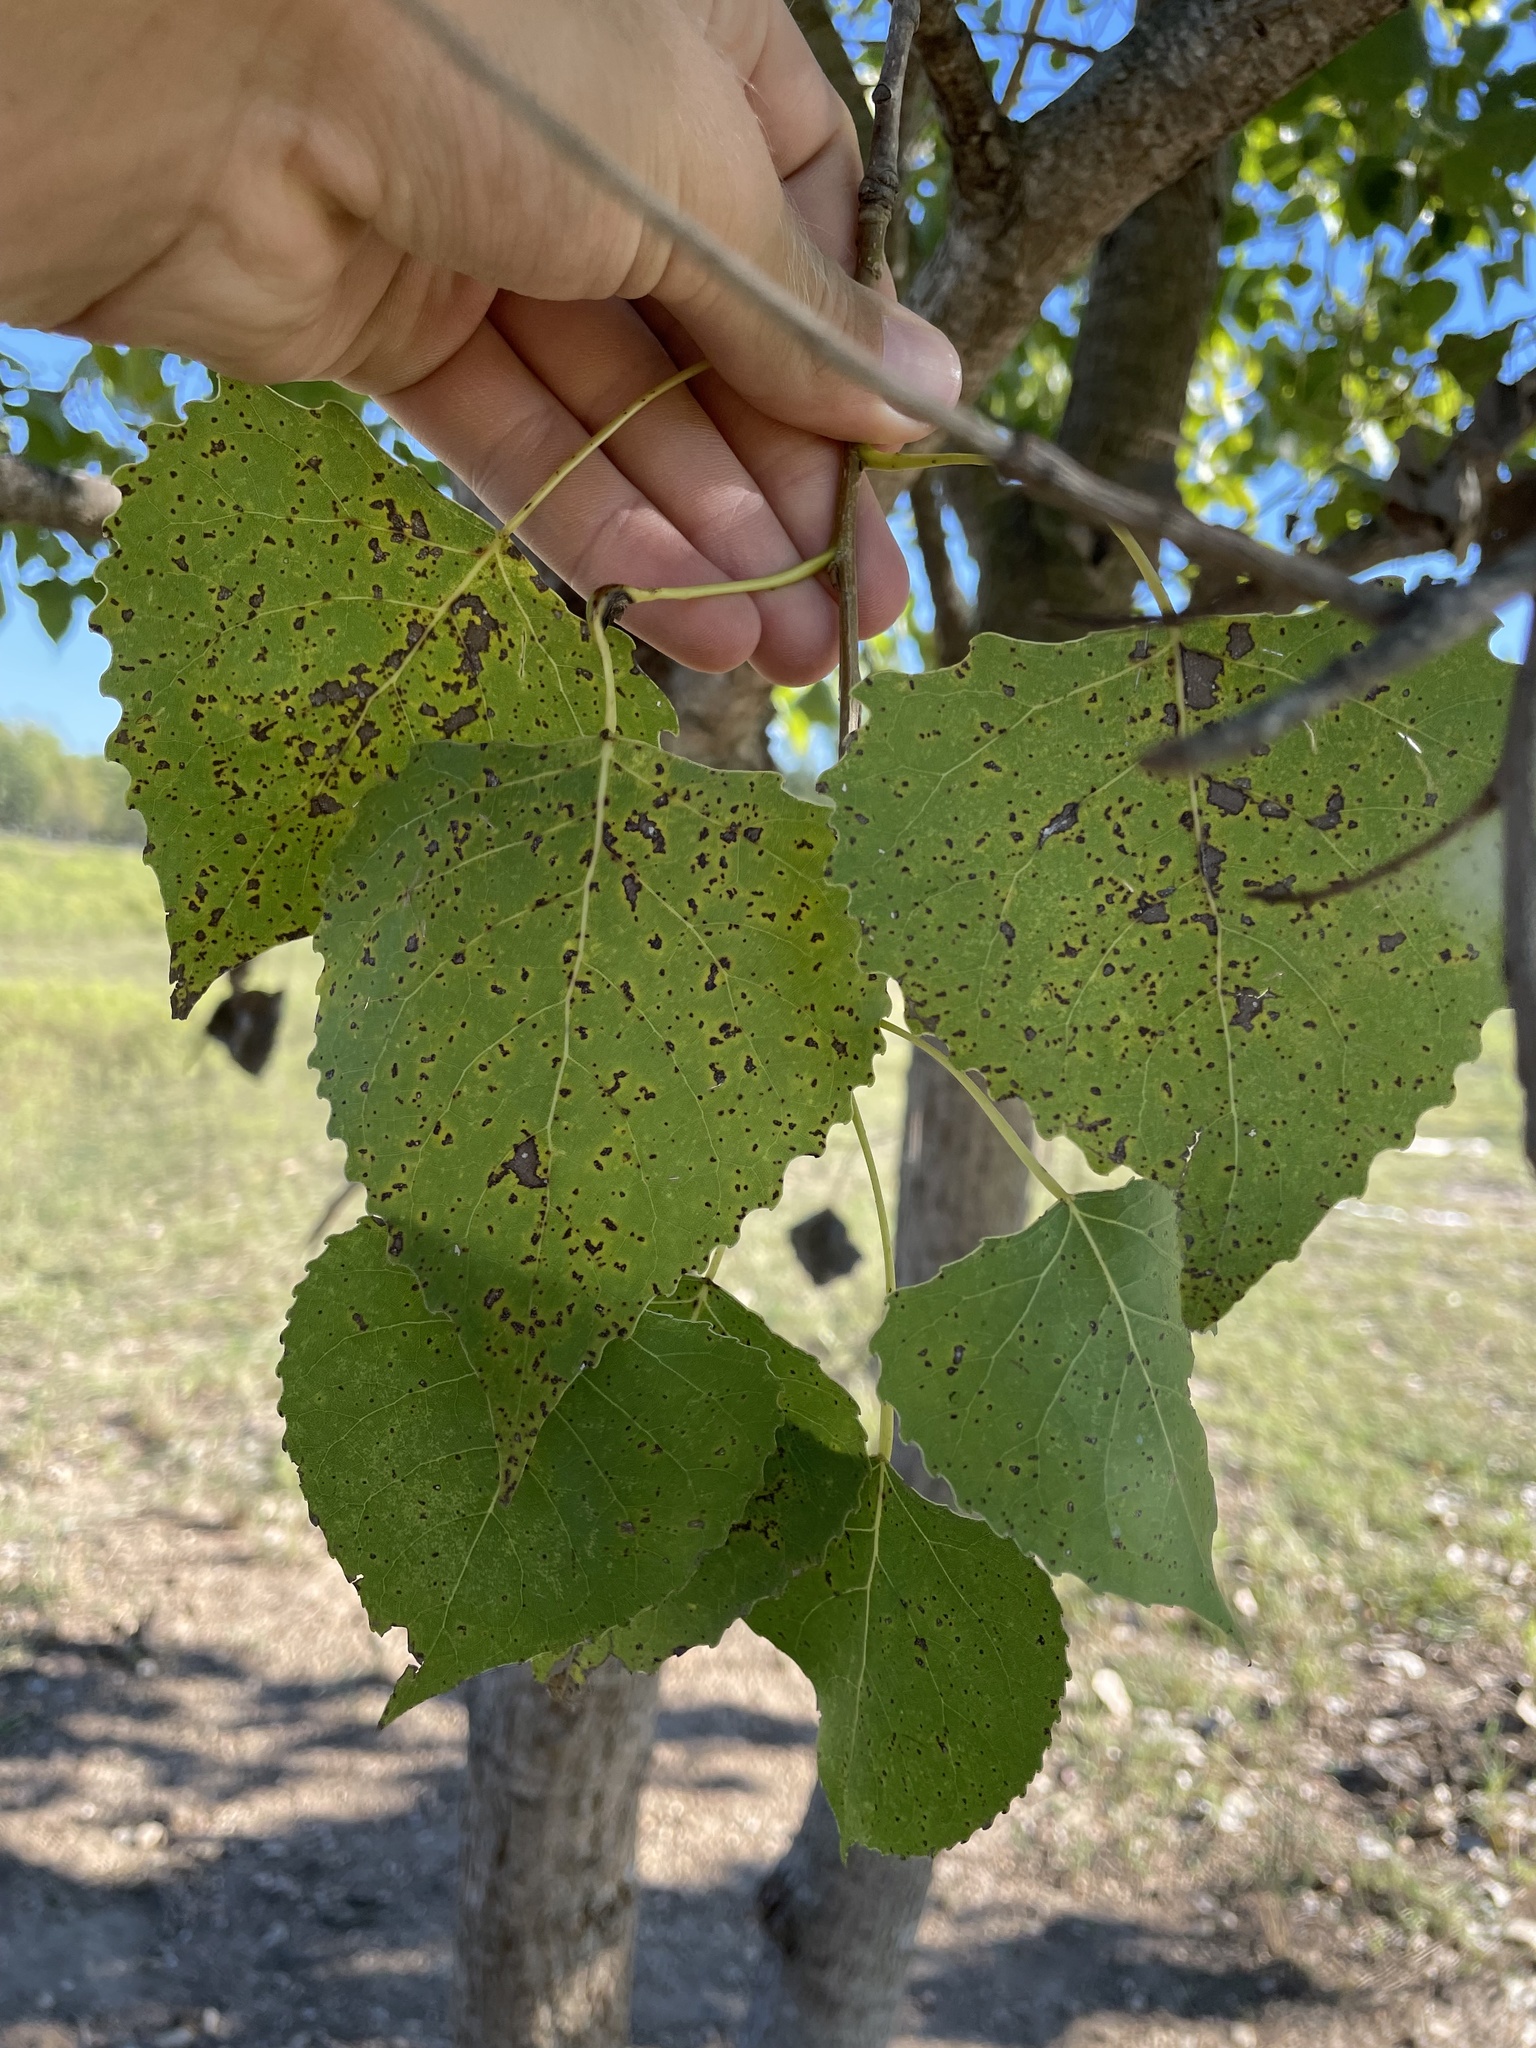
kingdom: Plantae
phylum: Tracheophyta
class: Magnoliopsida
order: Malpighiales
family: Salicaceae
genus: Populus
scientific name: Populus deltoides
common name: Eastern cottonwood
